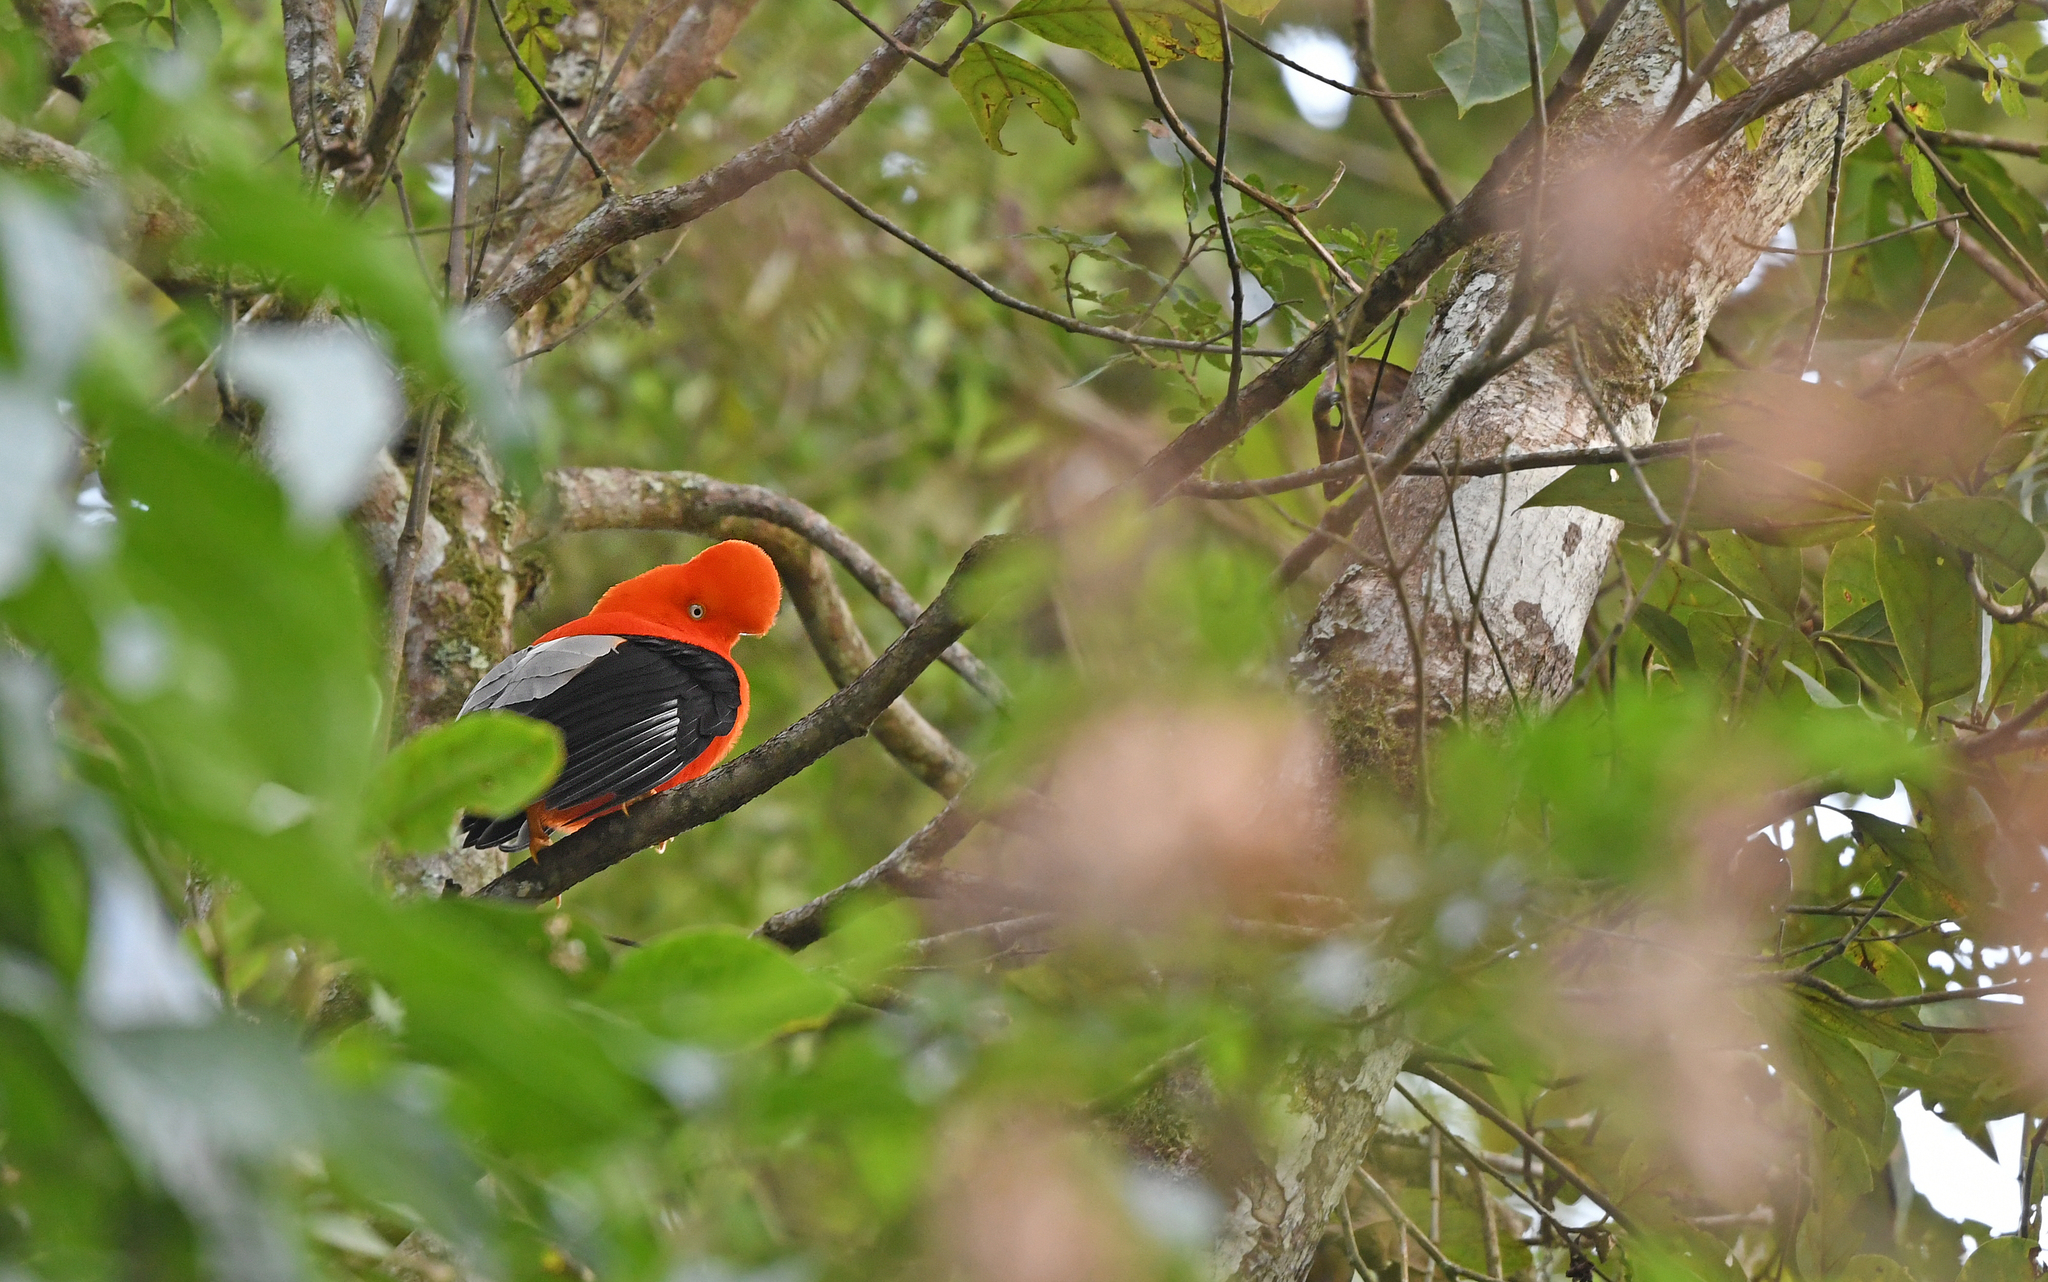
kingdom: Animalia
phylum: Chordata
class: Aves
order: Passeriformes
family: Cotingidae
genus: Rupicola
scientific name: Rupicola peruvianus
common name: Andean cock-of-the-rock
